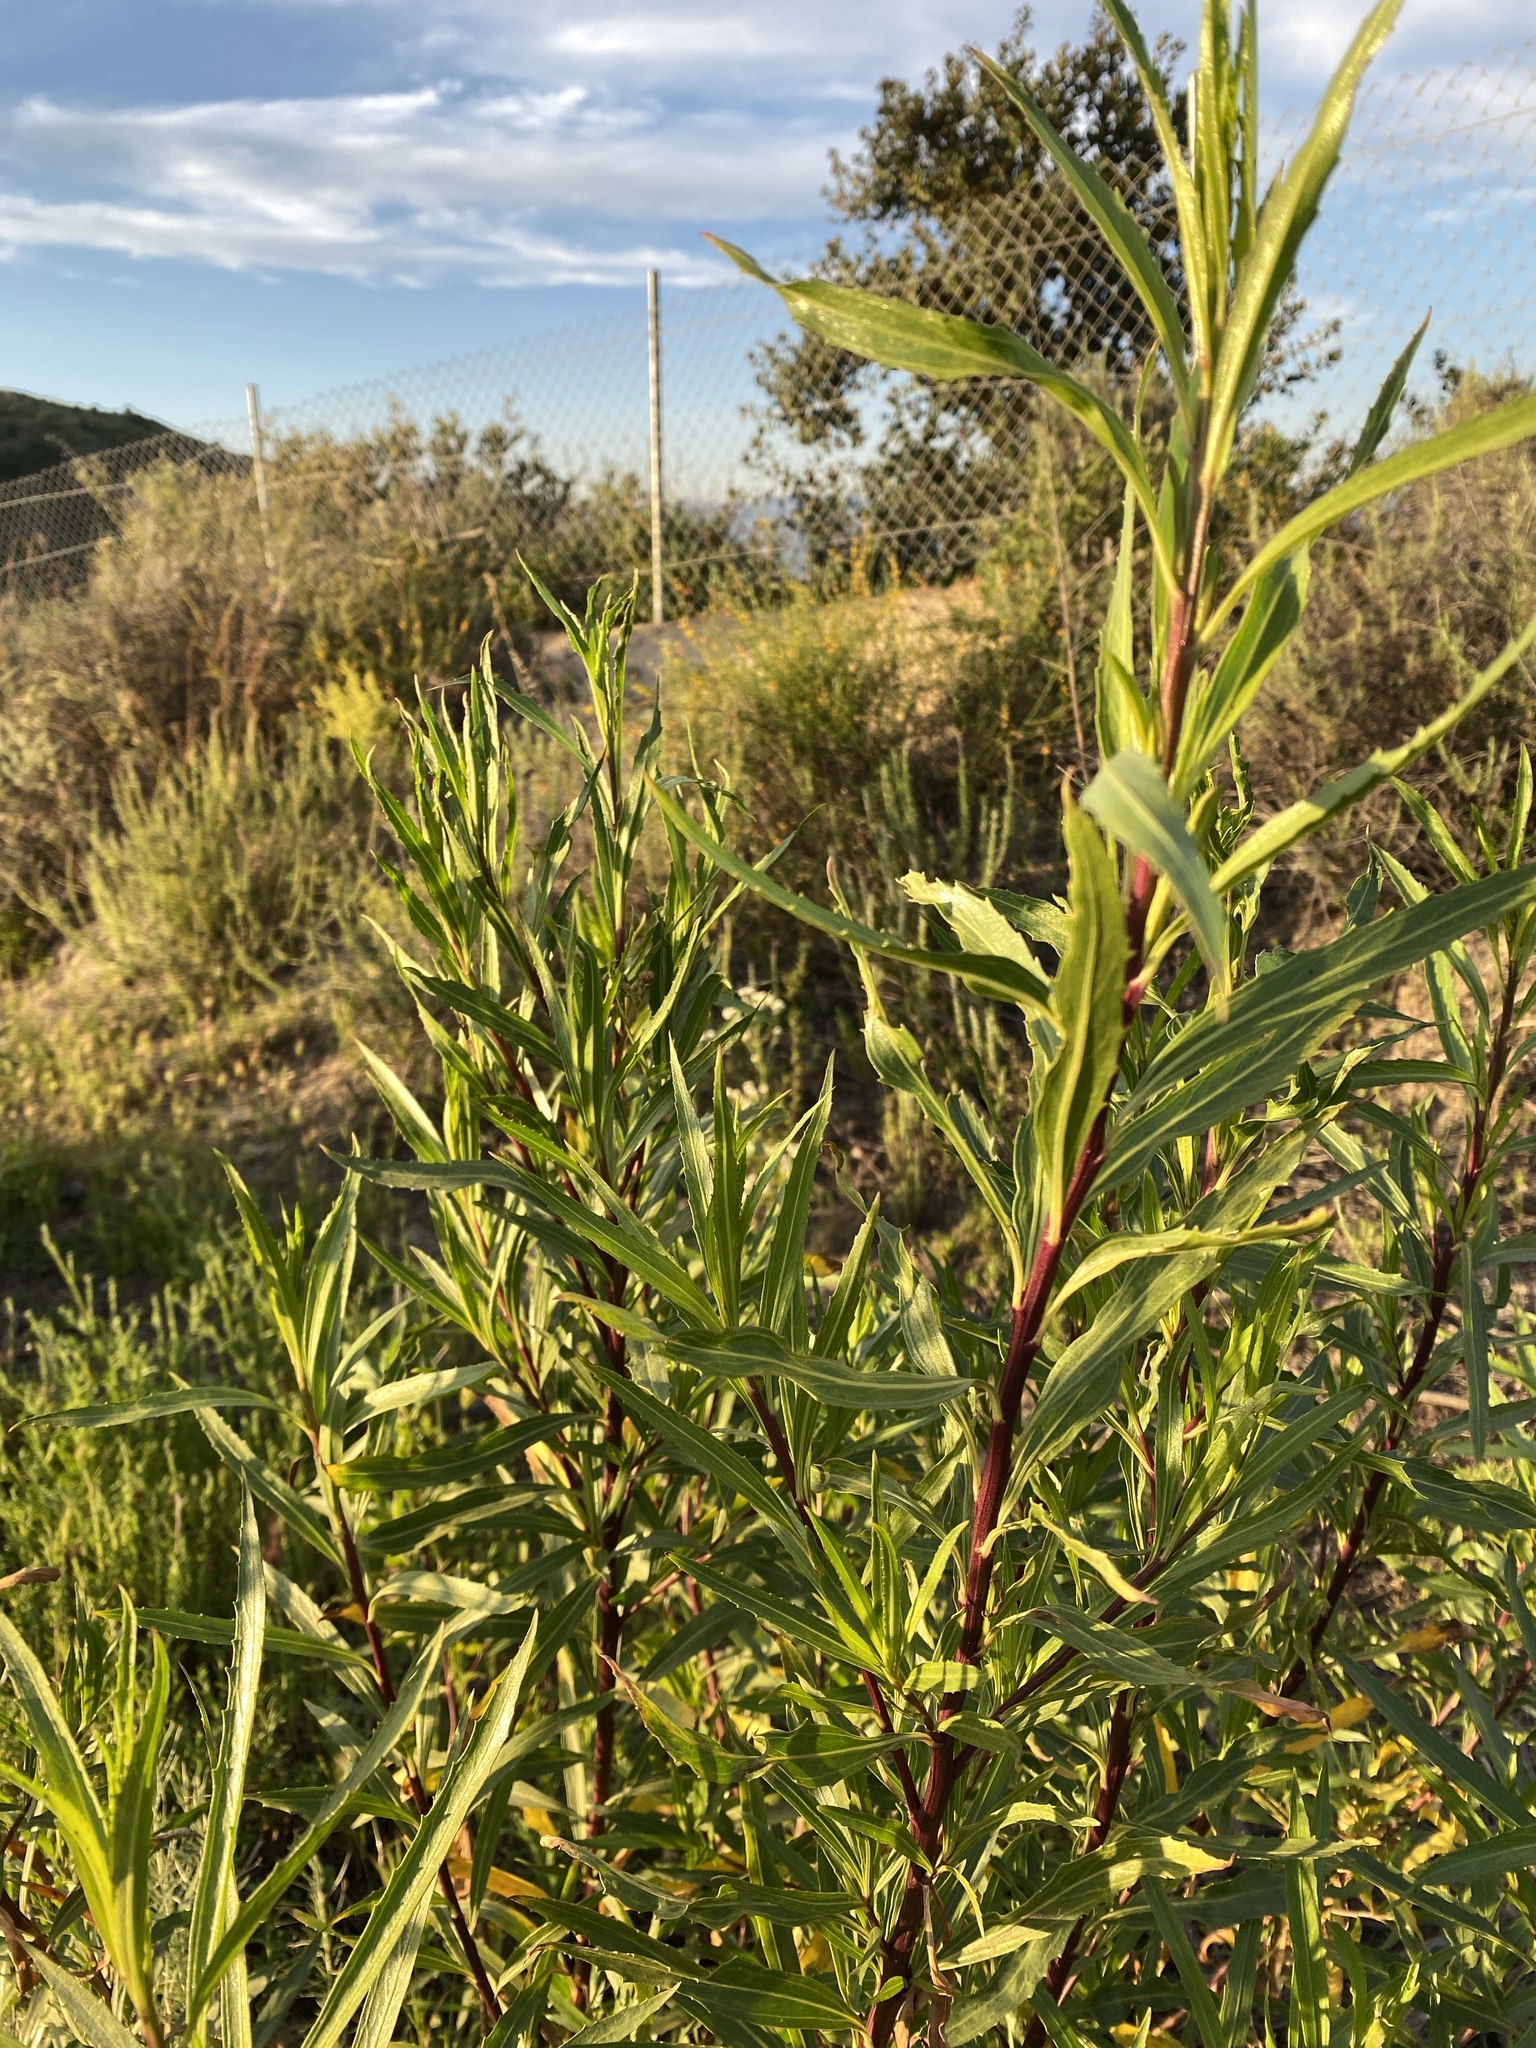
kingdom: Plantae
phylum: Tracheophyta
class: Magnoliopsida
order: Asterales
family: Asteraceae
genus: Baccharis
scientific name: Baccharis salicifolia
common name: Sticky baccharis
